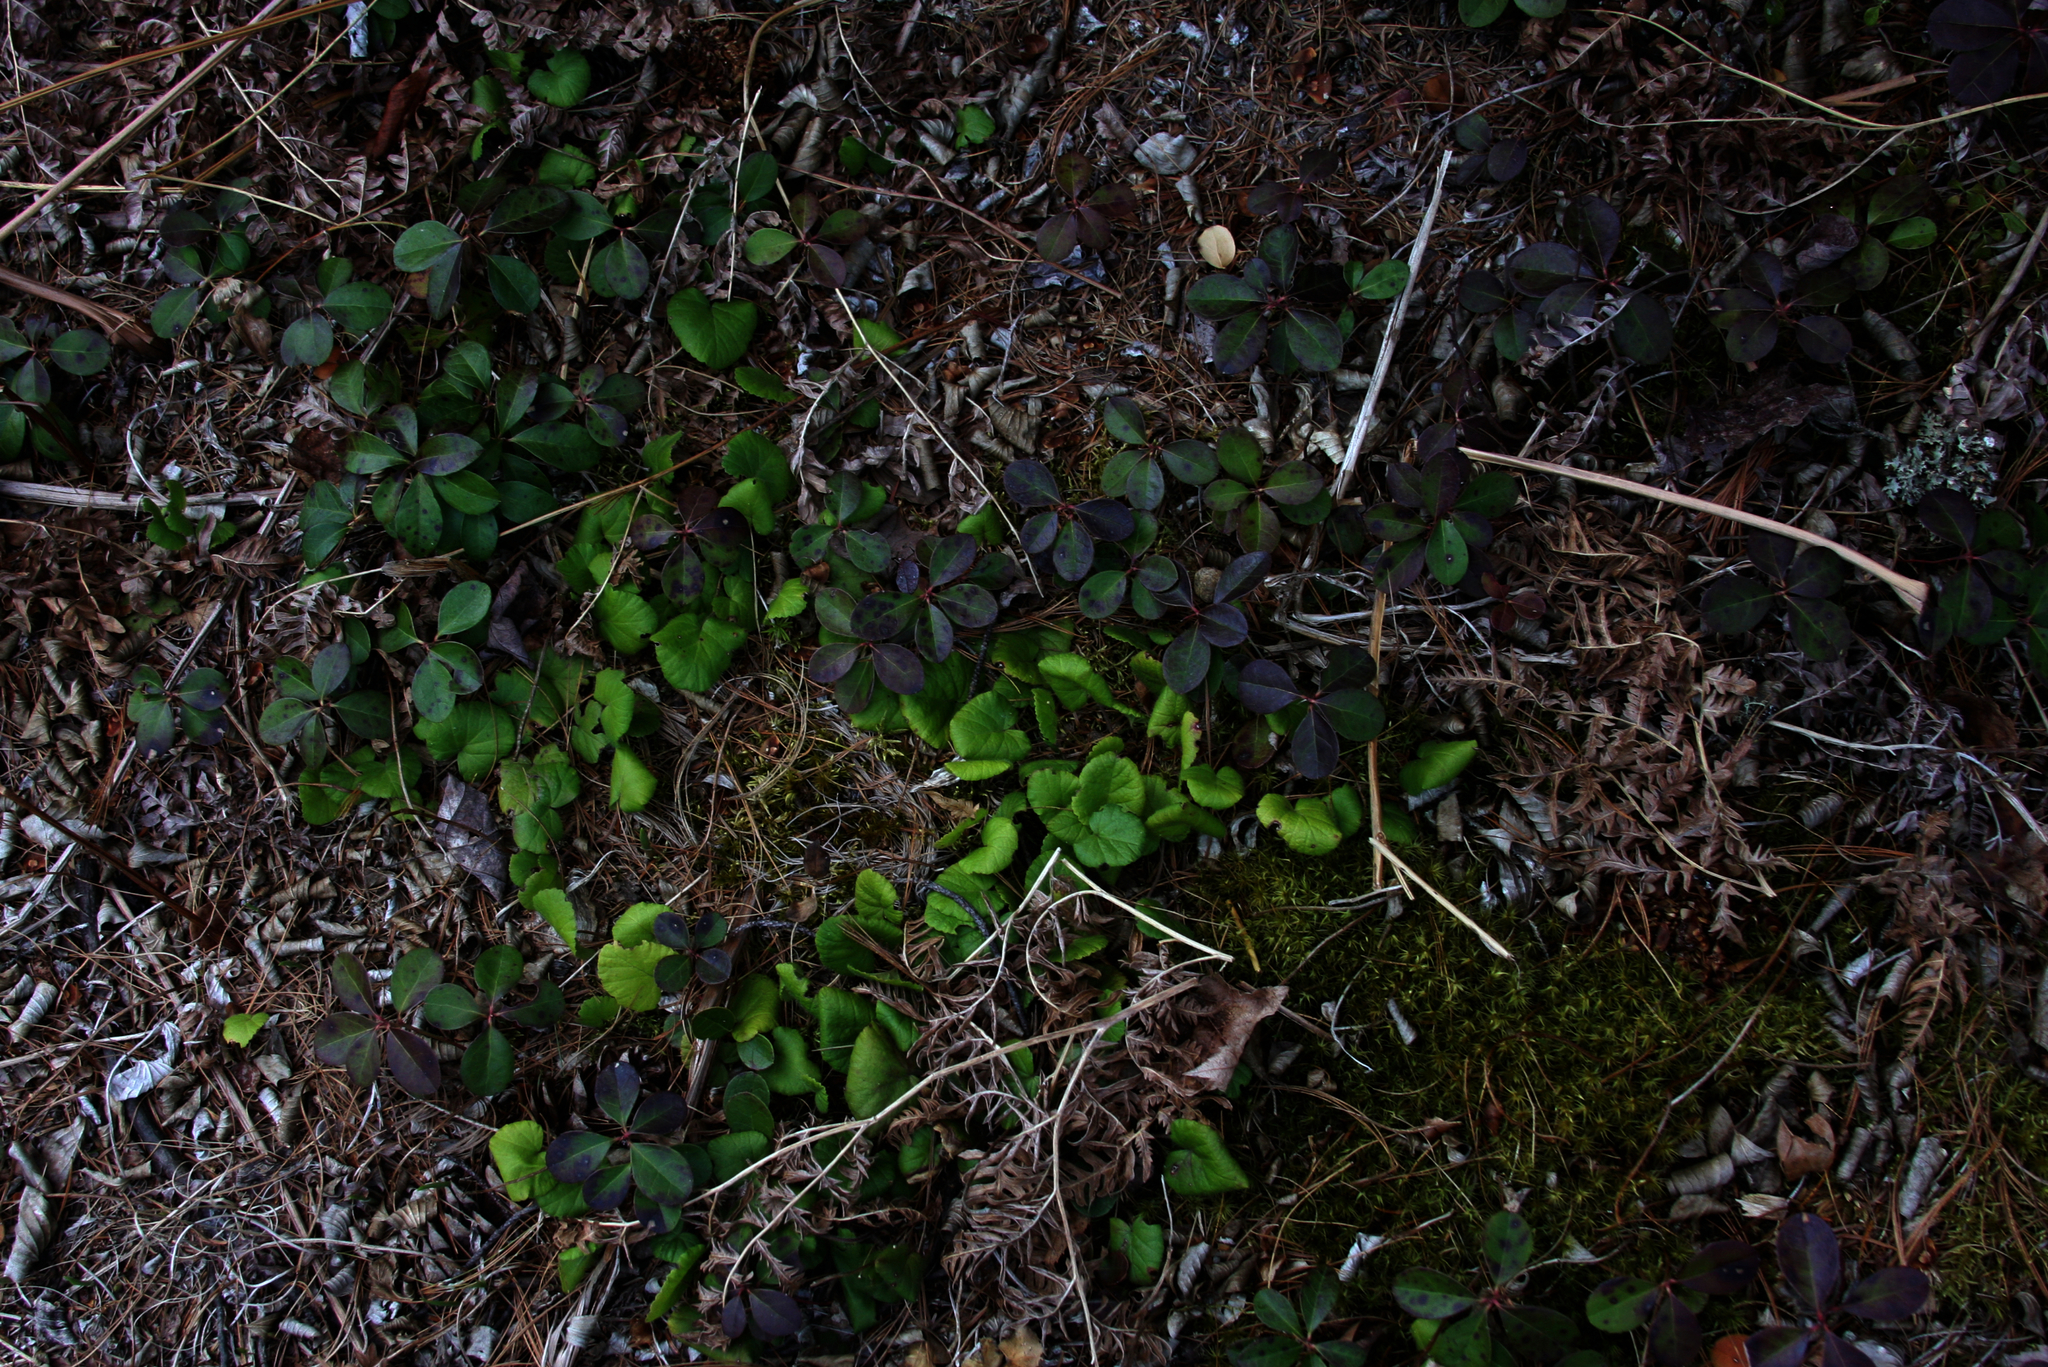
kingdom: Plantae
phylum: Tracheophyta
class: Magnoliopsida
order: Ericales
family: Ericaceae
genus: Gaultheria
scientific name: Gaultheria procumbens
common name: Checkerberry
